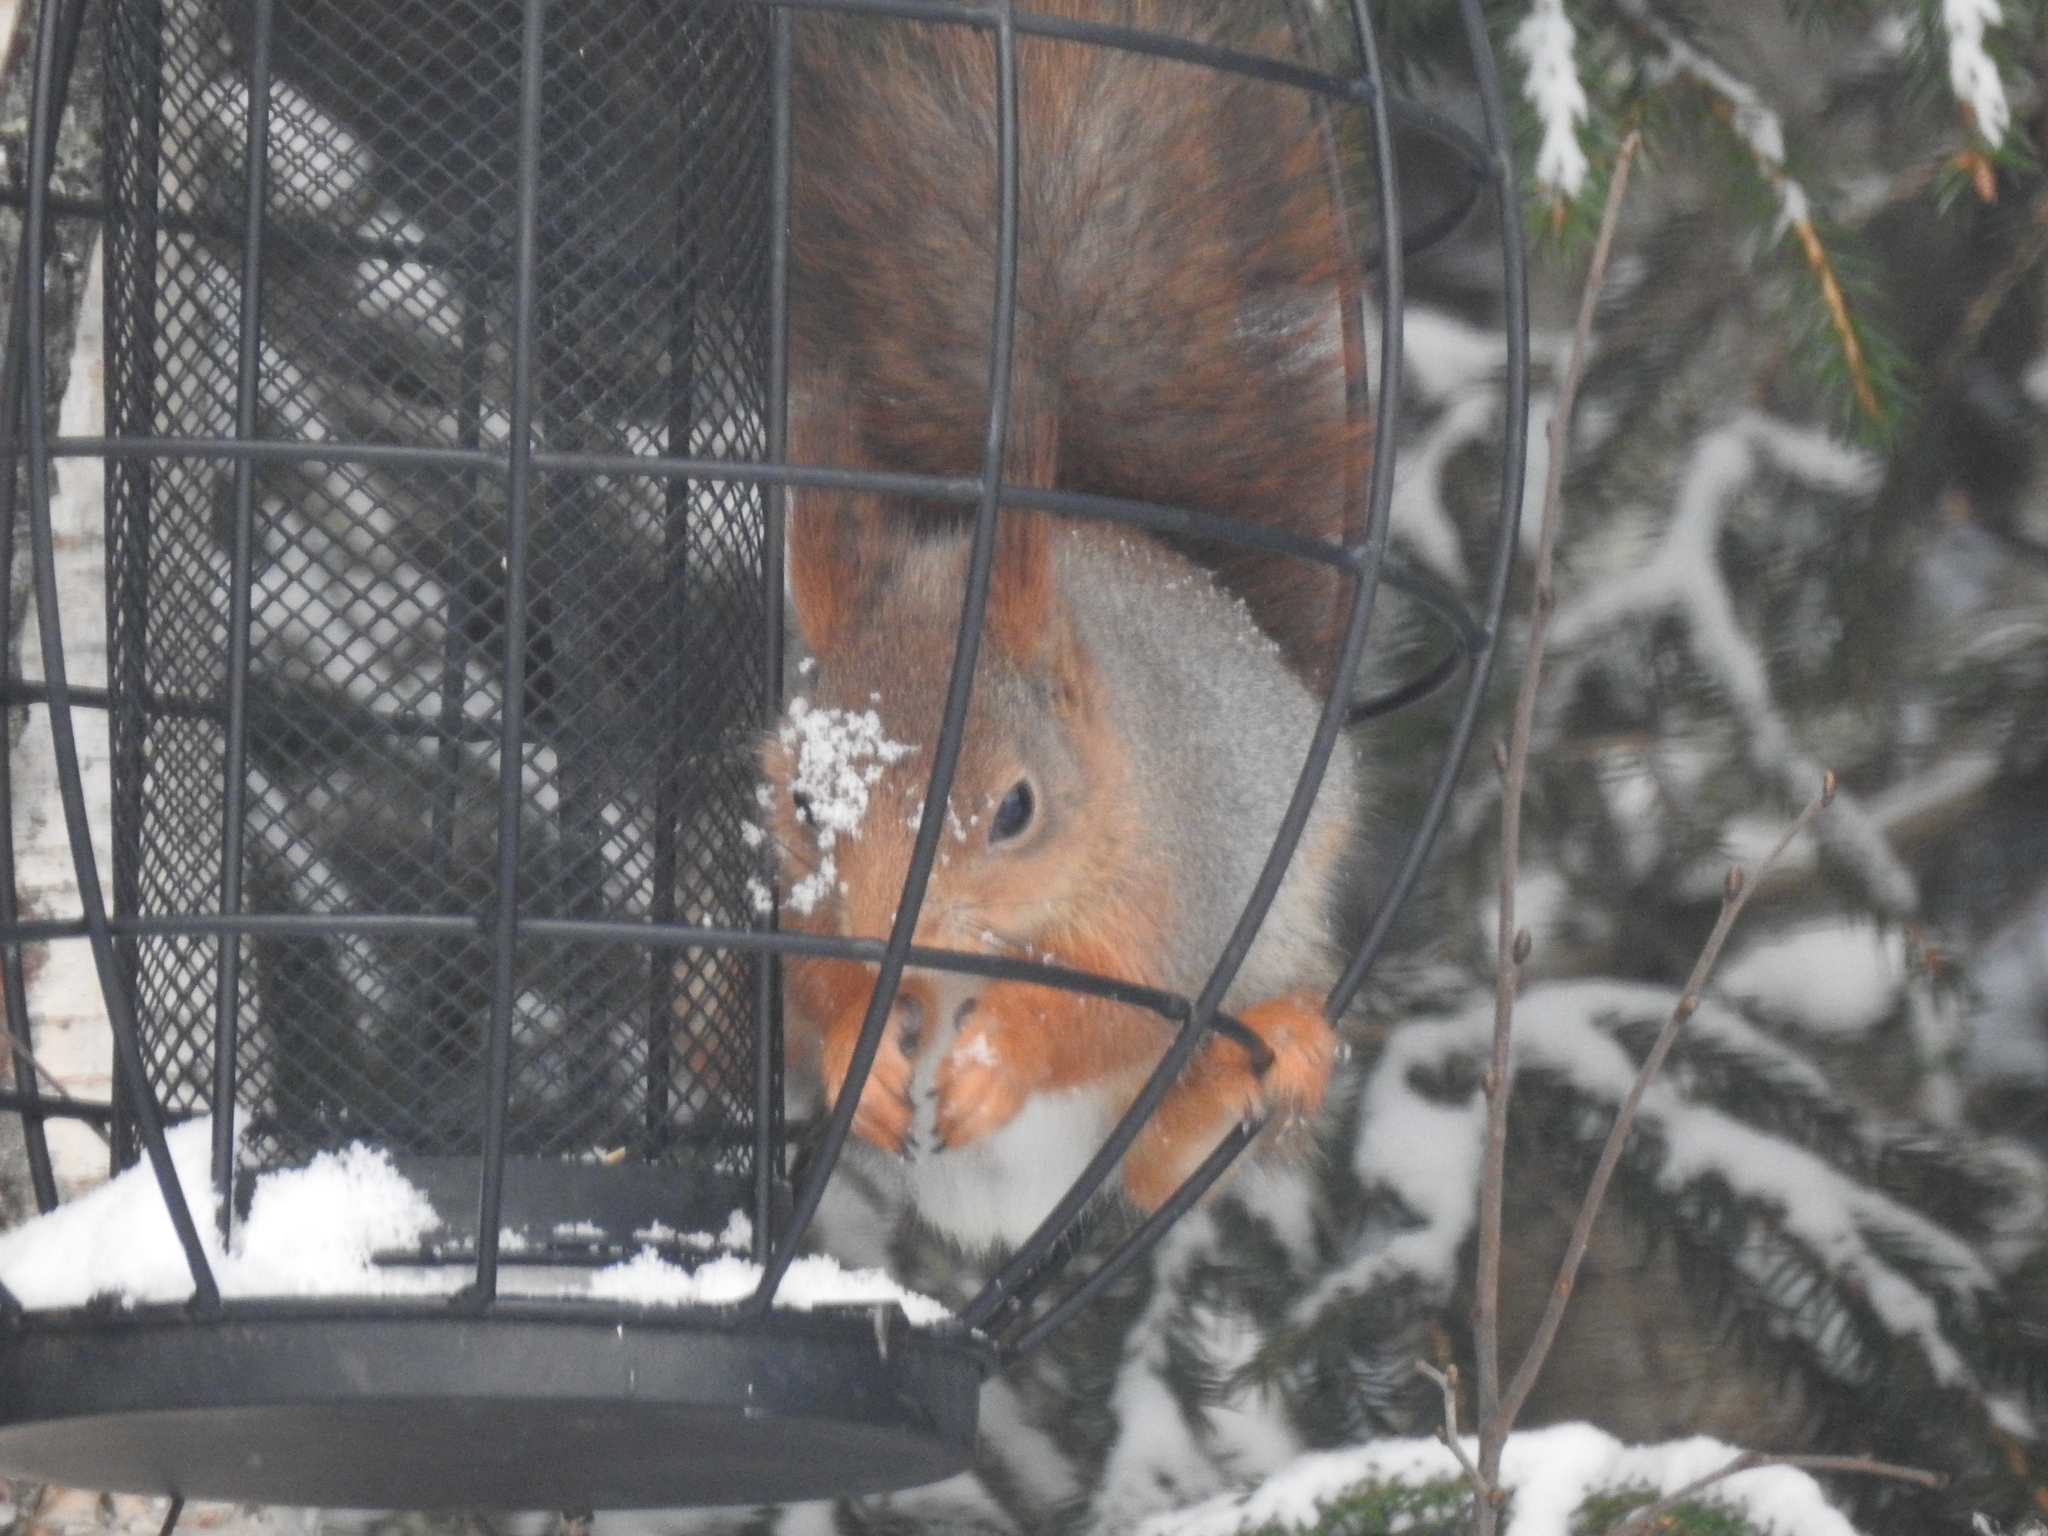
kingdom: Animalia
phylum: Chordata
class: Mammalia
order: Rodentia
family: Sciuridae
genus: Sciurus
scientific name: Sciurus vulgaris
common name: Eurasian red squirrel
